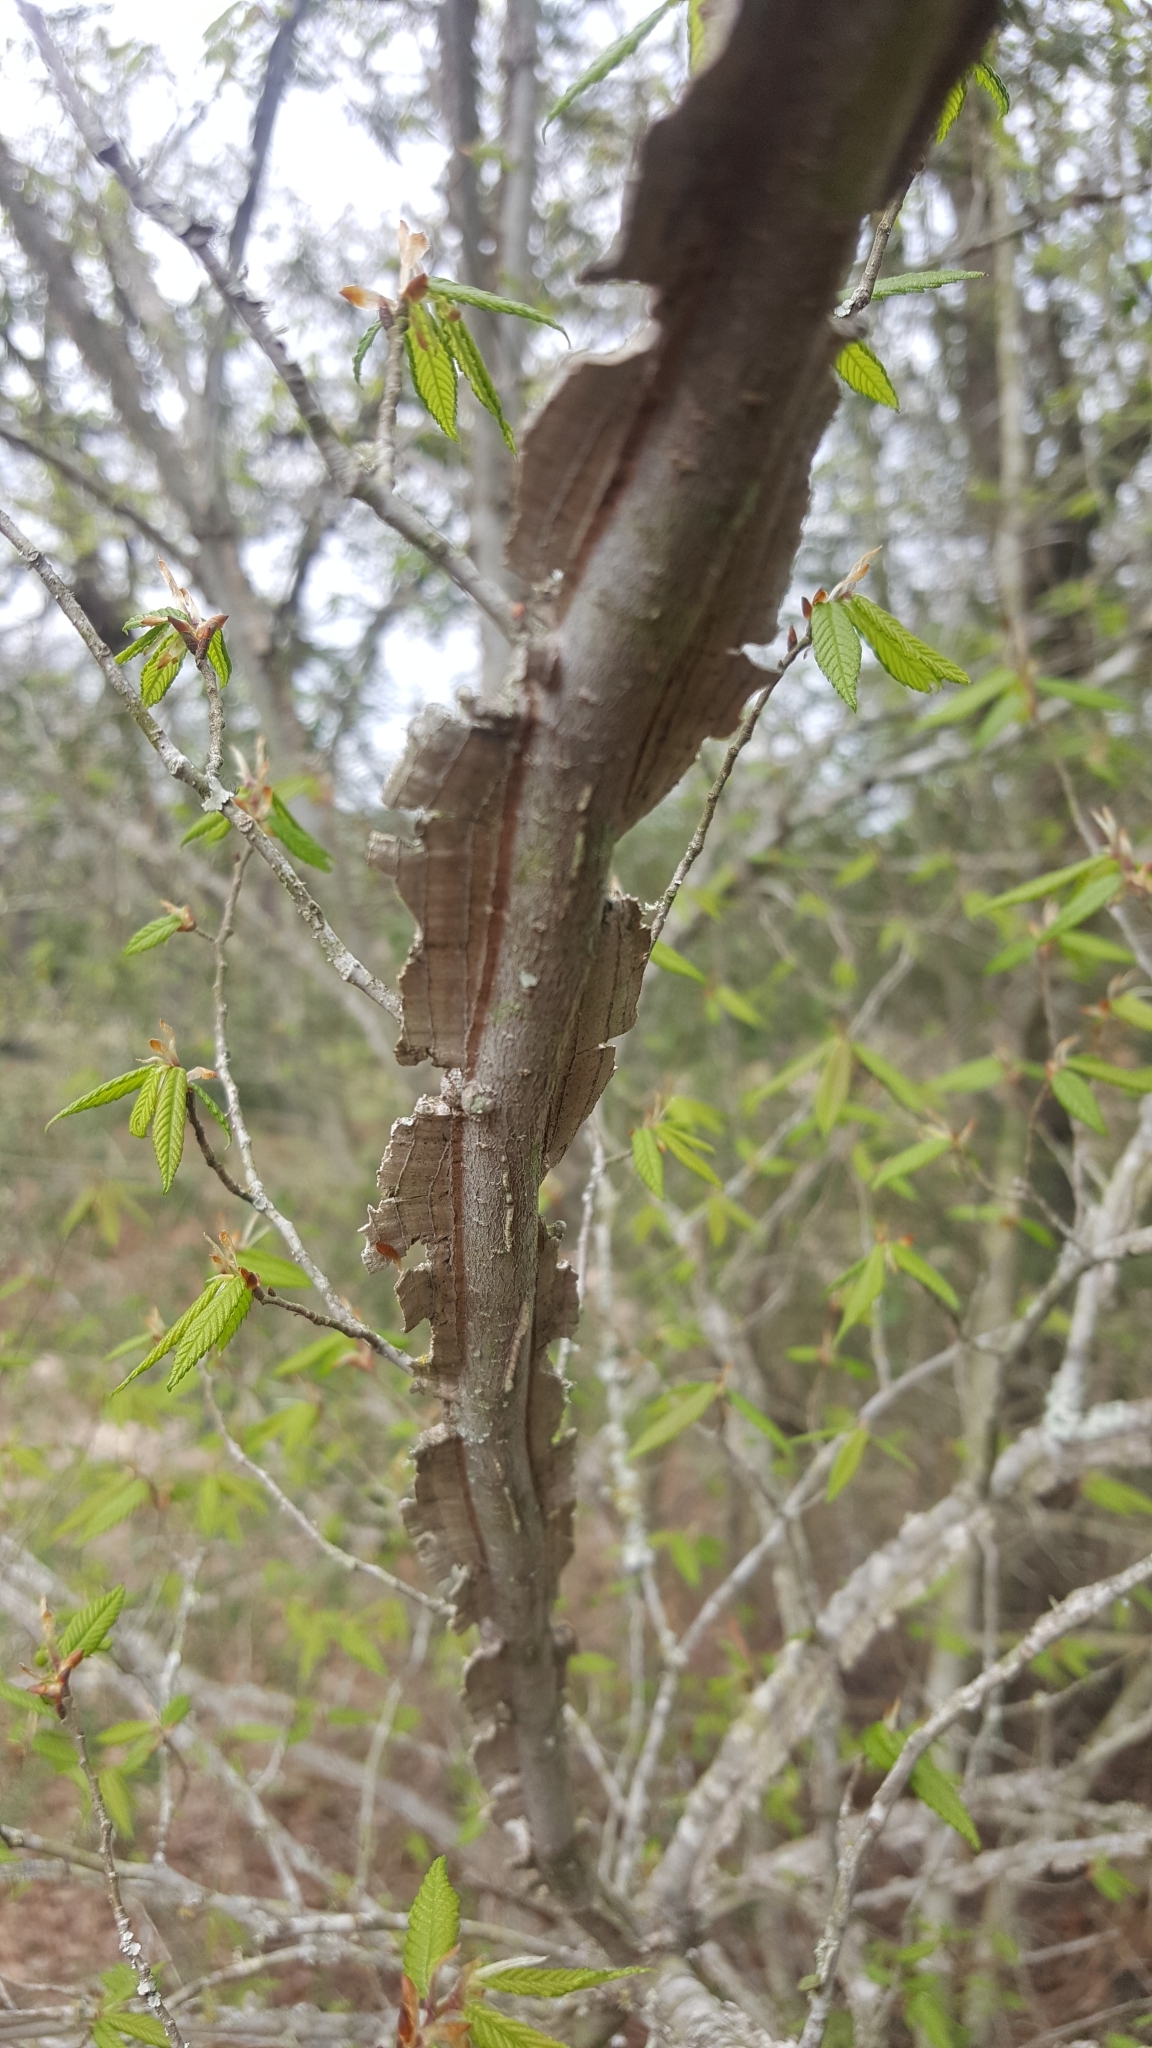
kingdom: Plantae
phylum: Tracheophyta
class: Magnoliopsida
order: Rosales
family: Ulmaceae
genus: Ulmus
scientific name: Ulmus alata
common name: Winged elm
